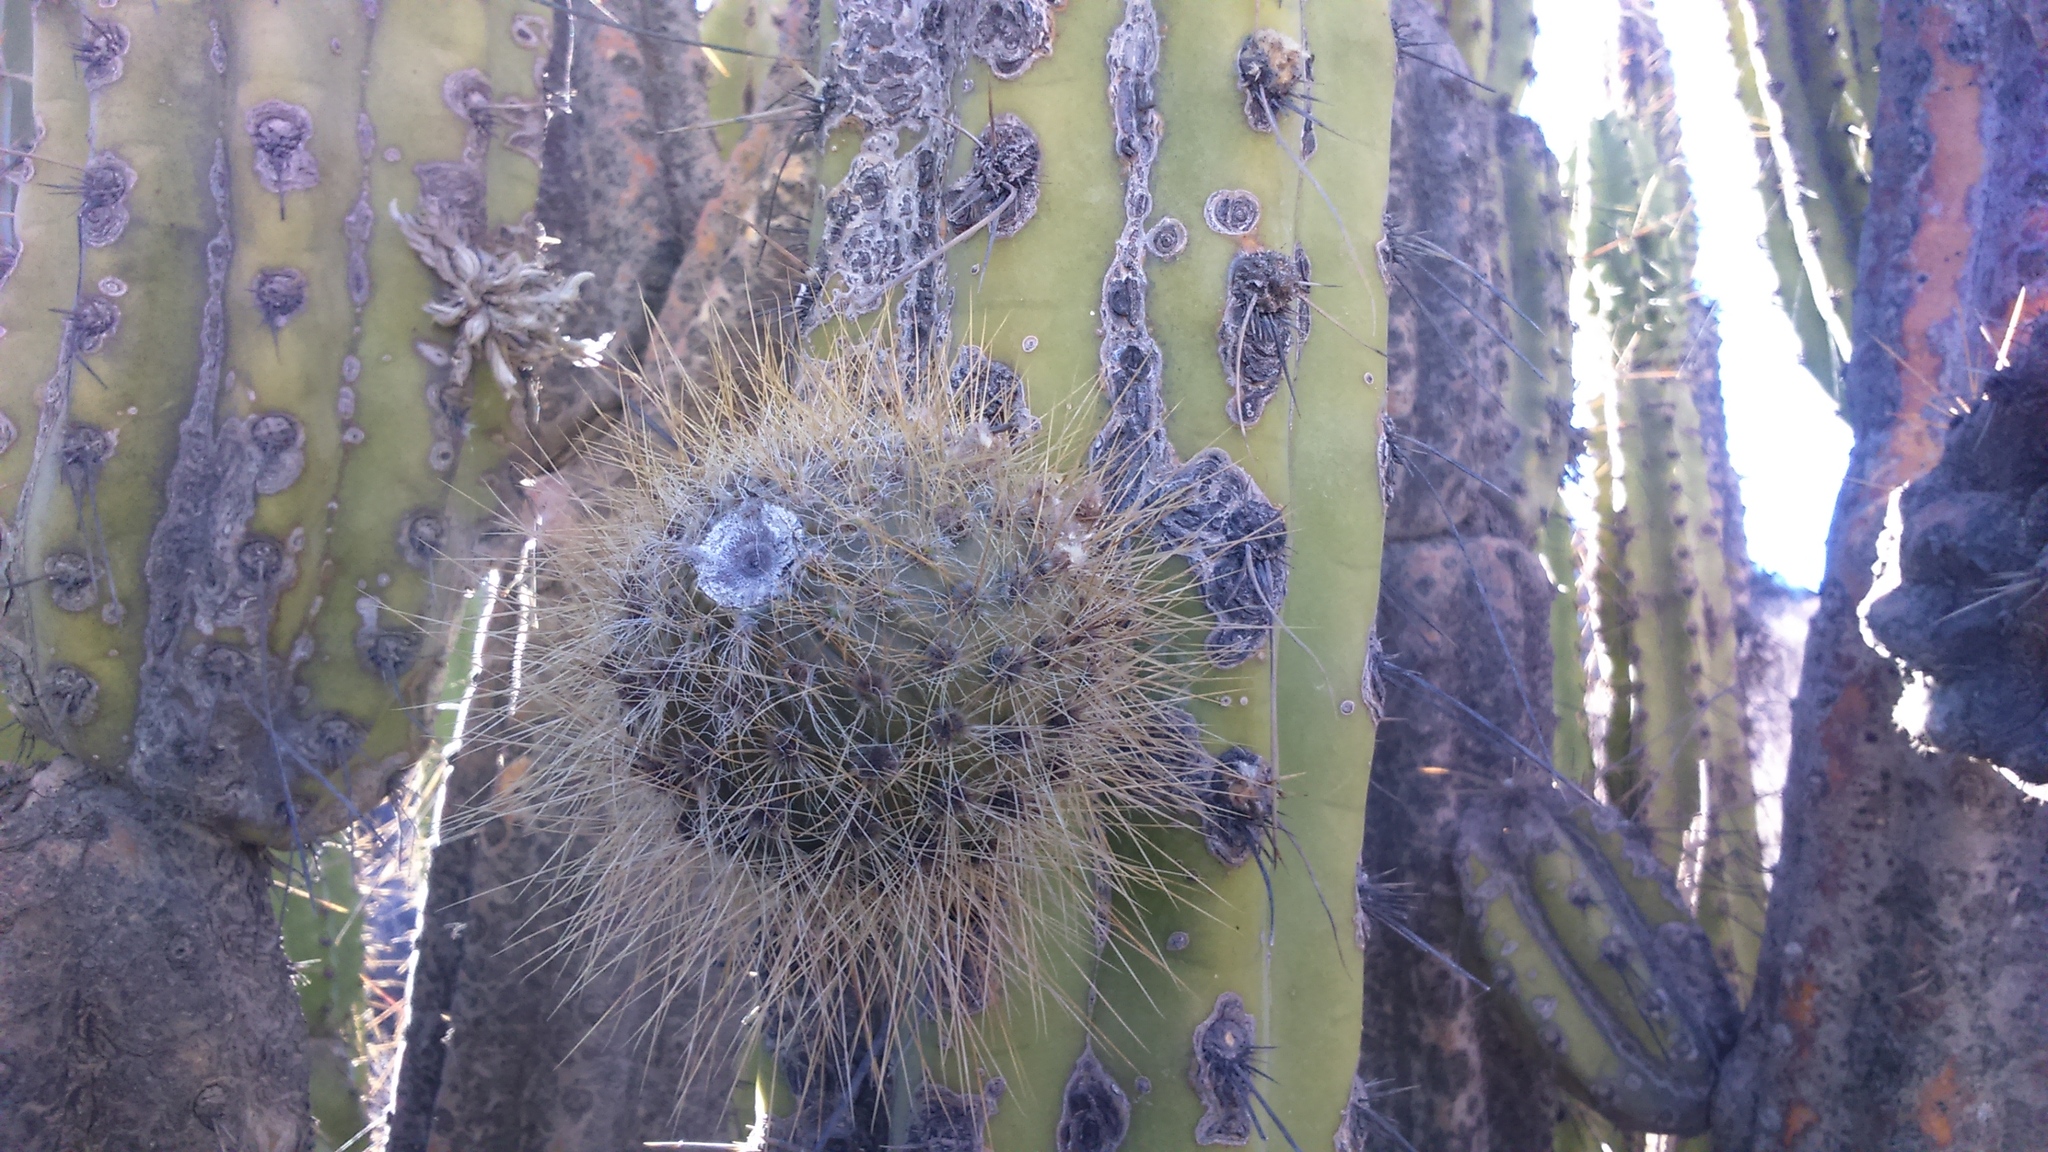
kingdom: Plantae
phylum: Tracheophyta
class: Magnoliopsida
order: Caryophyllales
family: Cactaceae
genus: Corryocactus
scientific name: Corryocactus brevistylus
